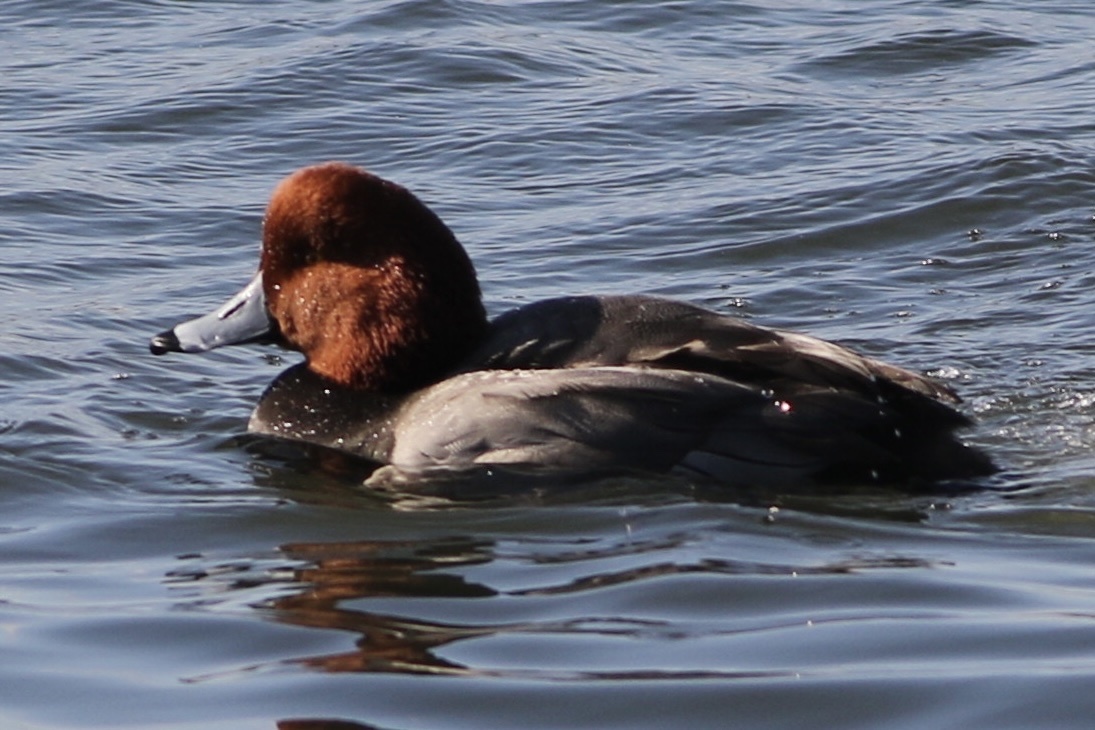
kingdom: Animalia
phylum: Chordata
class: Aves
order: Anseriformes
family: Anatidae
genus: Aythya
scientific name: Aythya americana
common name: Redhead
